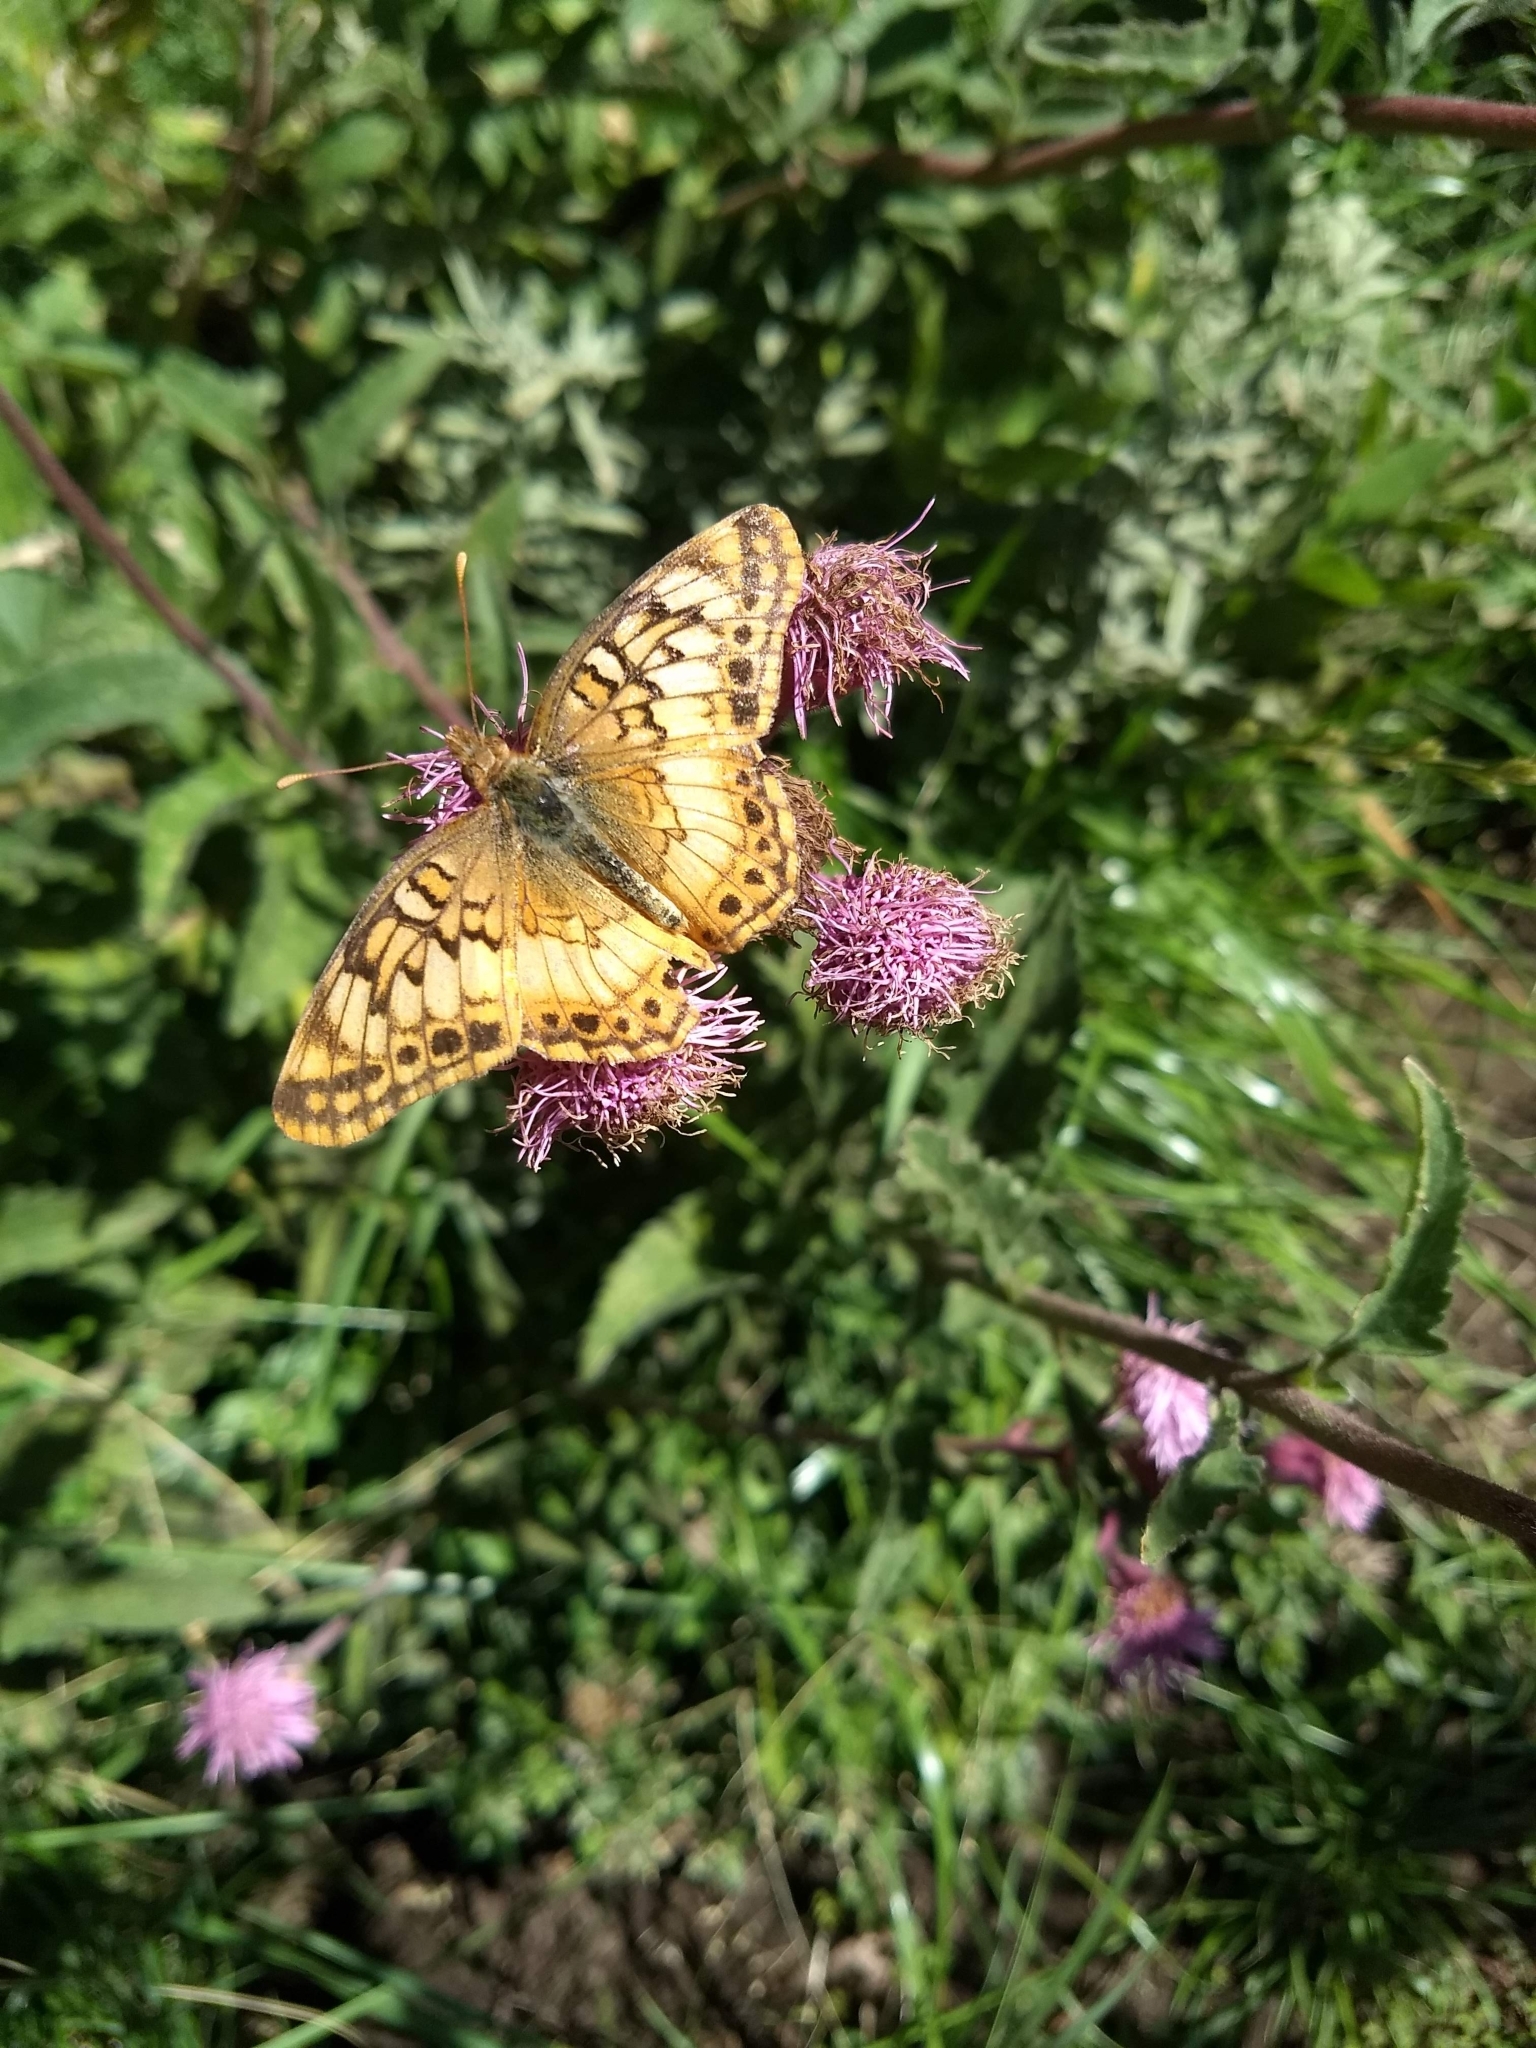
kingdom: Animalia
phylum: Arthropoda
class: Insecta
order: Lepidoptera
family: Nymphalidae
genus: Euptoieta
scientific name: Euptoieta hortensia
